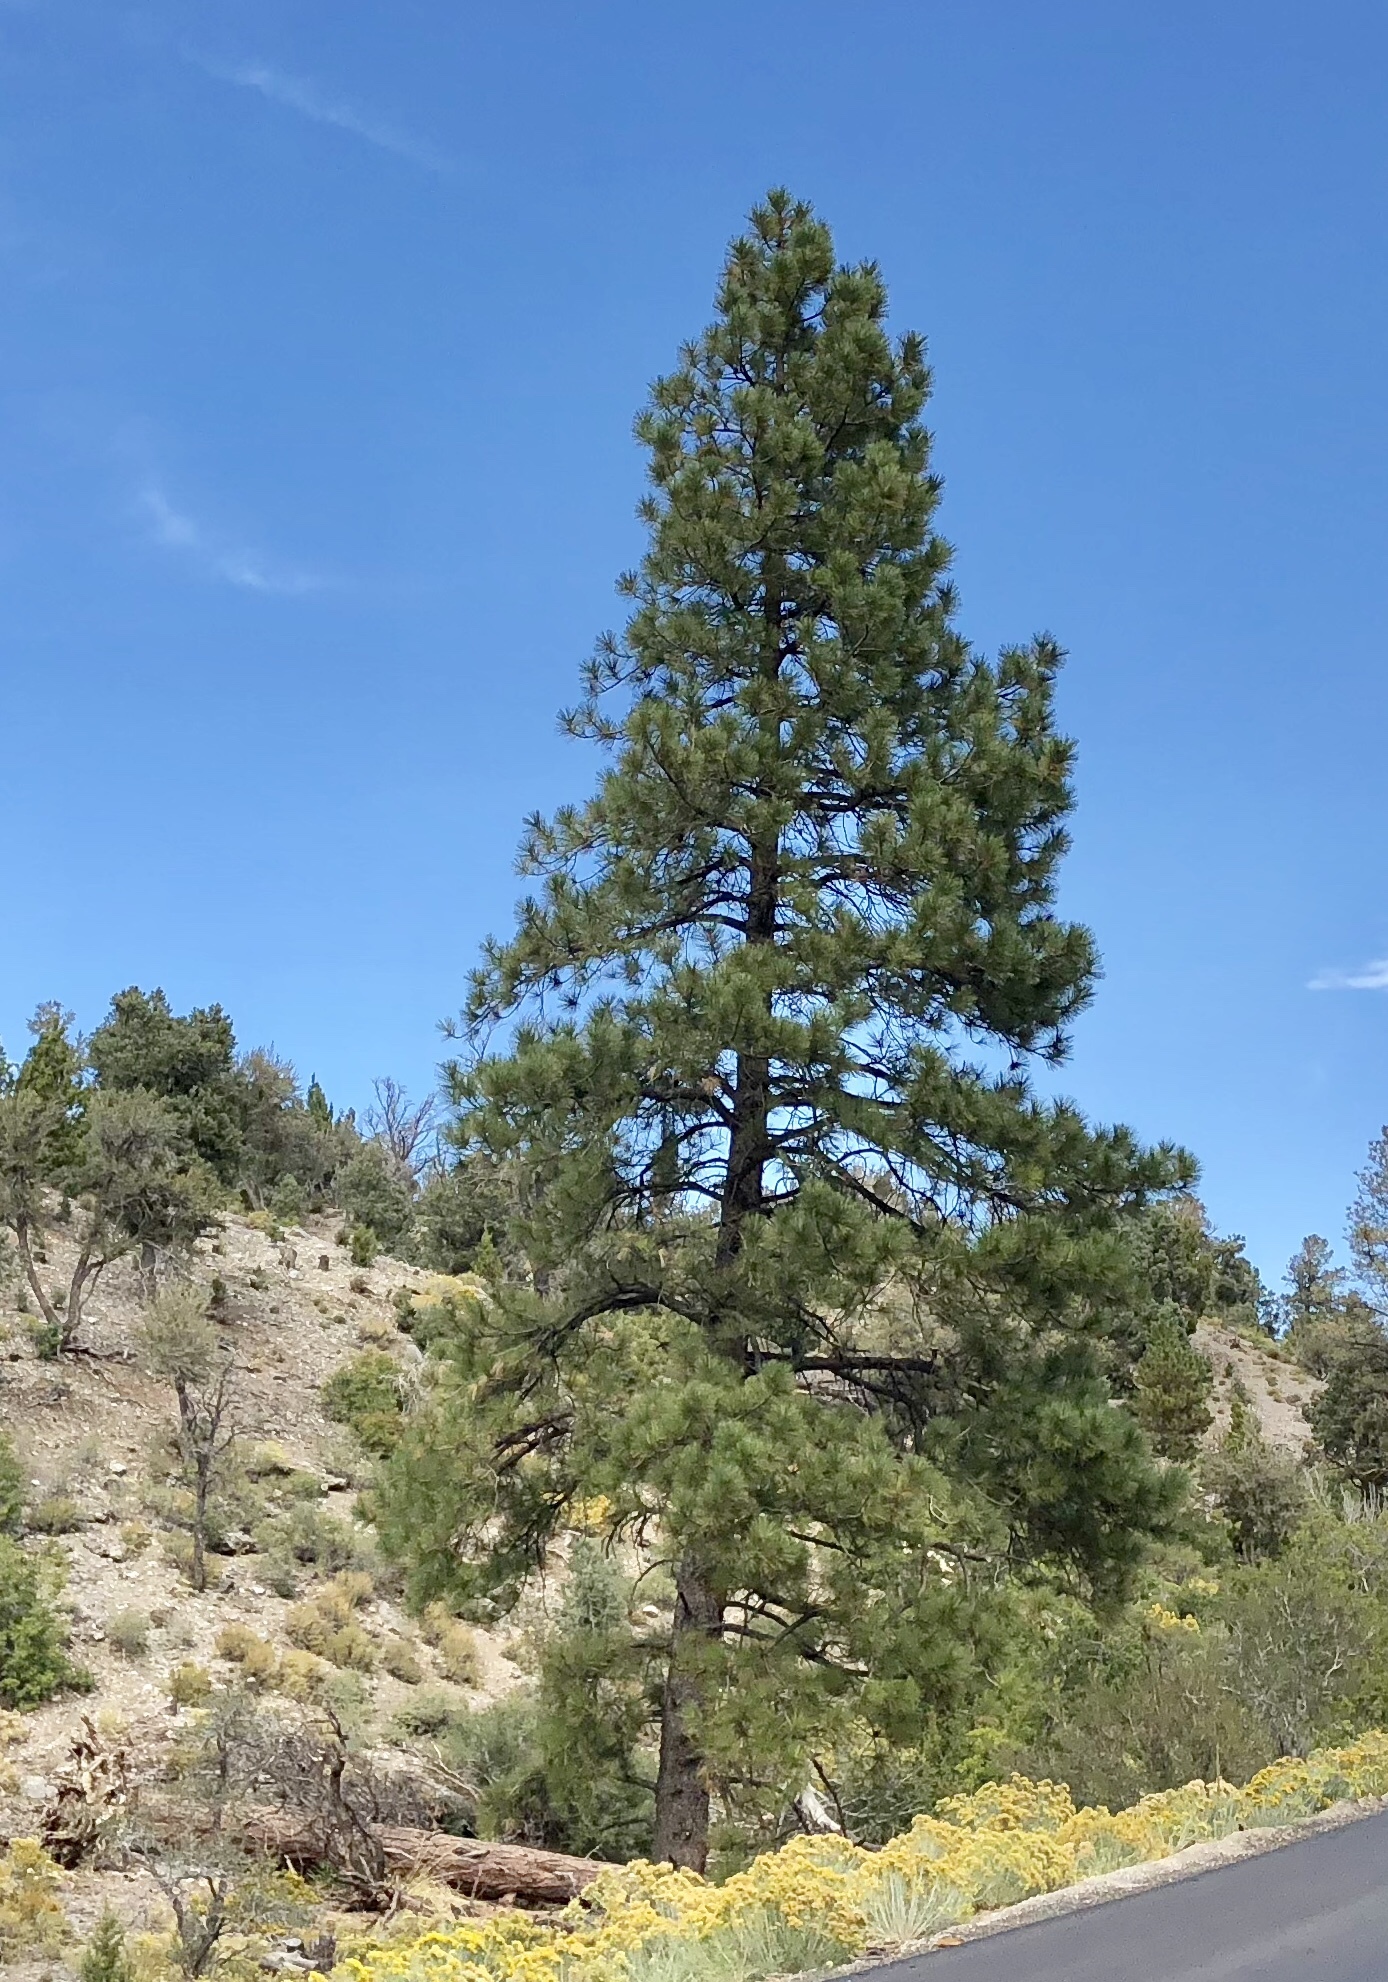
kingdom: Plantae
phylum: Tracheophyta
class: Pinopsida
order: Pinales
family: Pinaceae
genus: Pinus
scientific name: Pinus ponderosa
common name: Western yellow-pine
